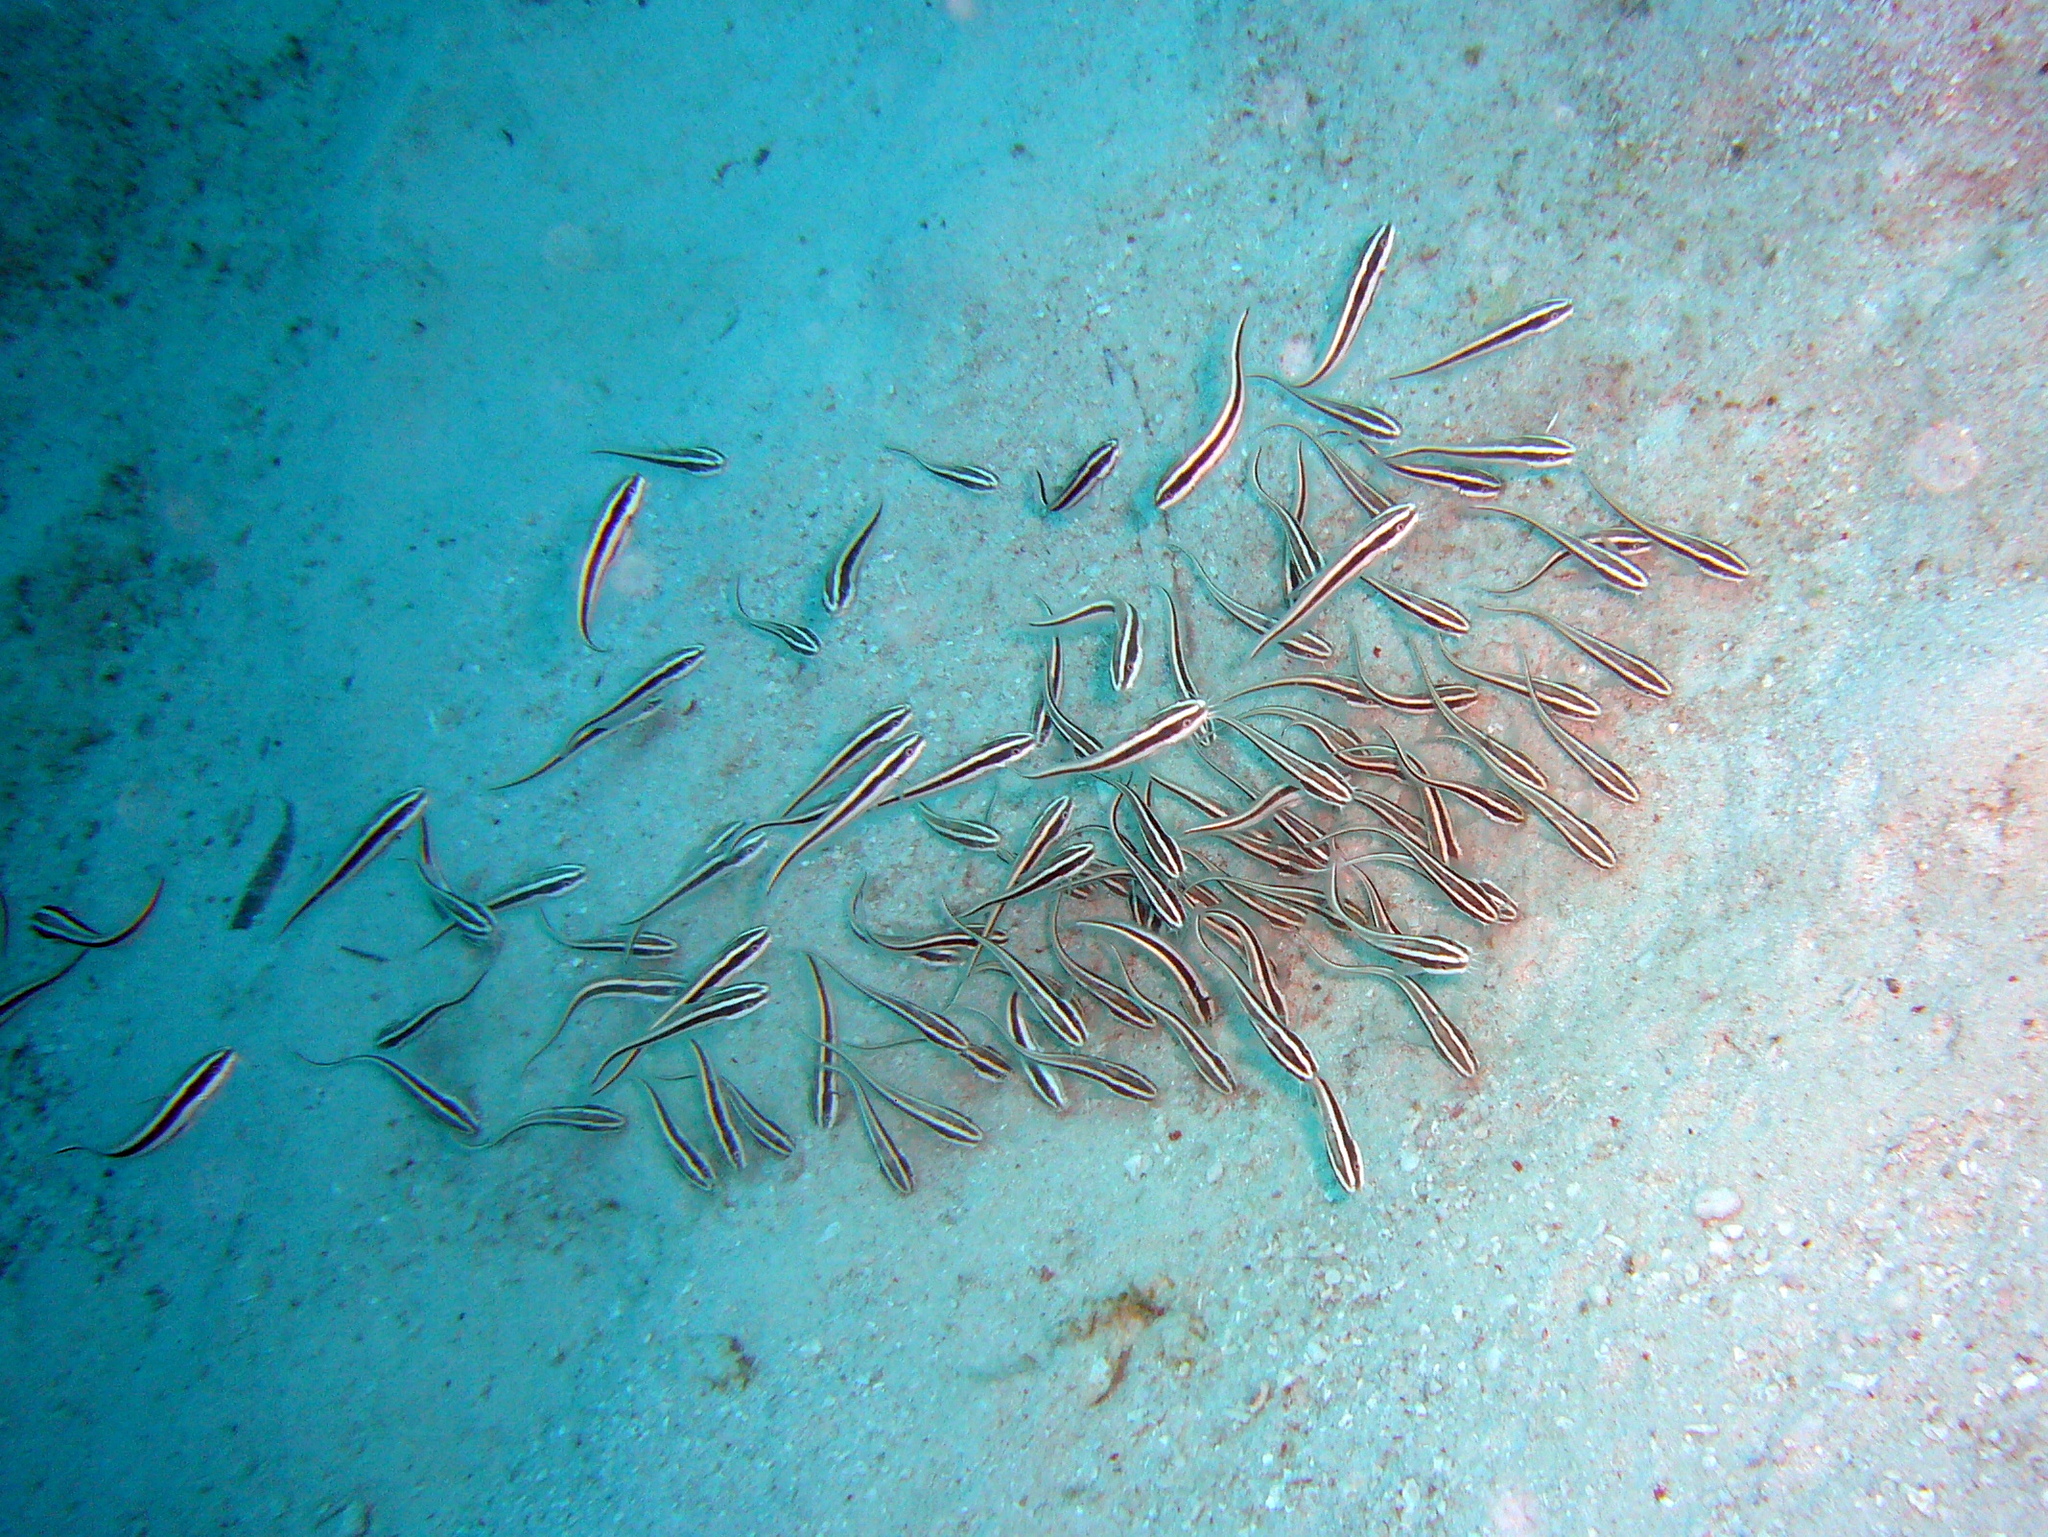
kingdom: Animalia
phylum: Chordata
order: Siluriformes
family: Plotosidae
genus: Plotosus
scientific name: Plotosus lineatus
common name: Striped eel catfish
